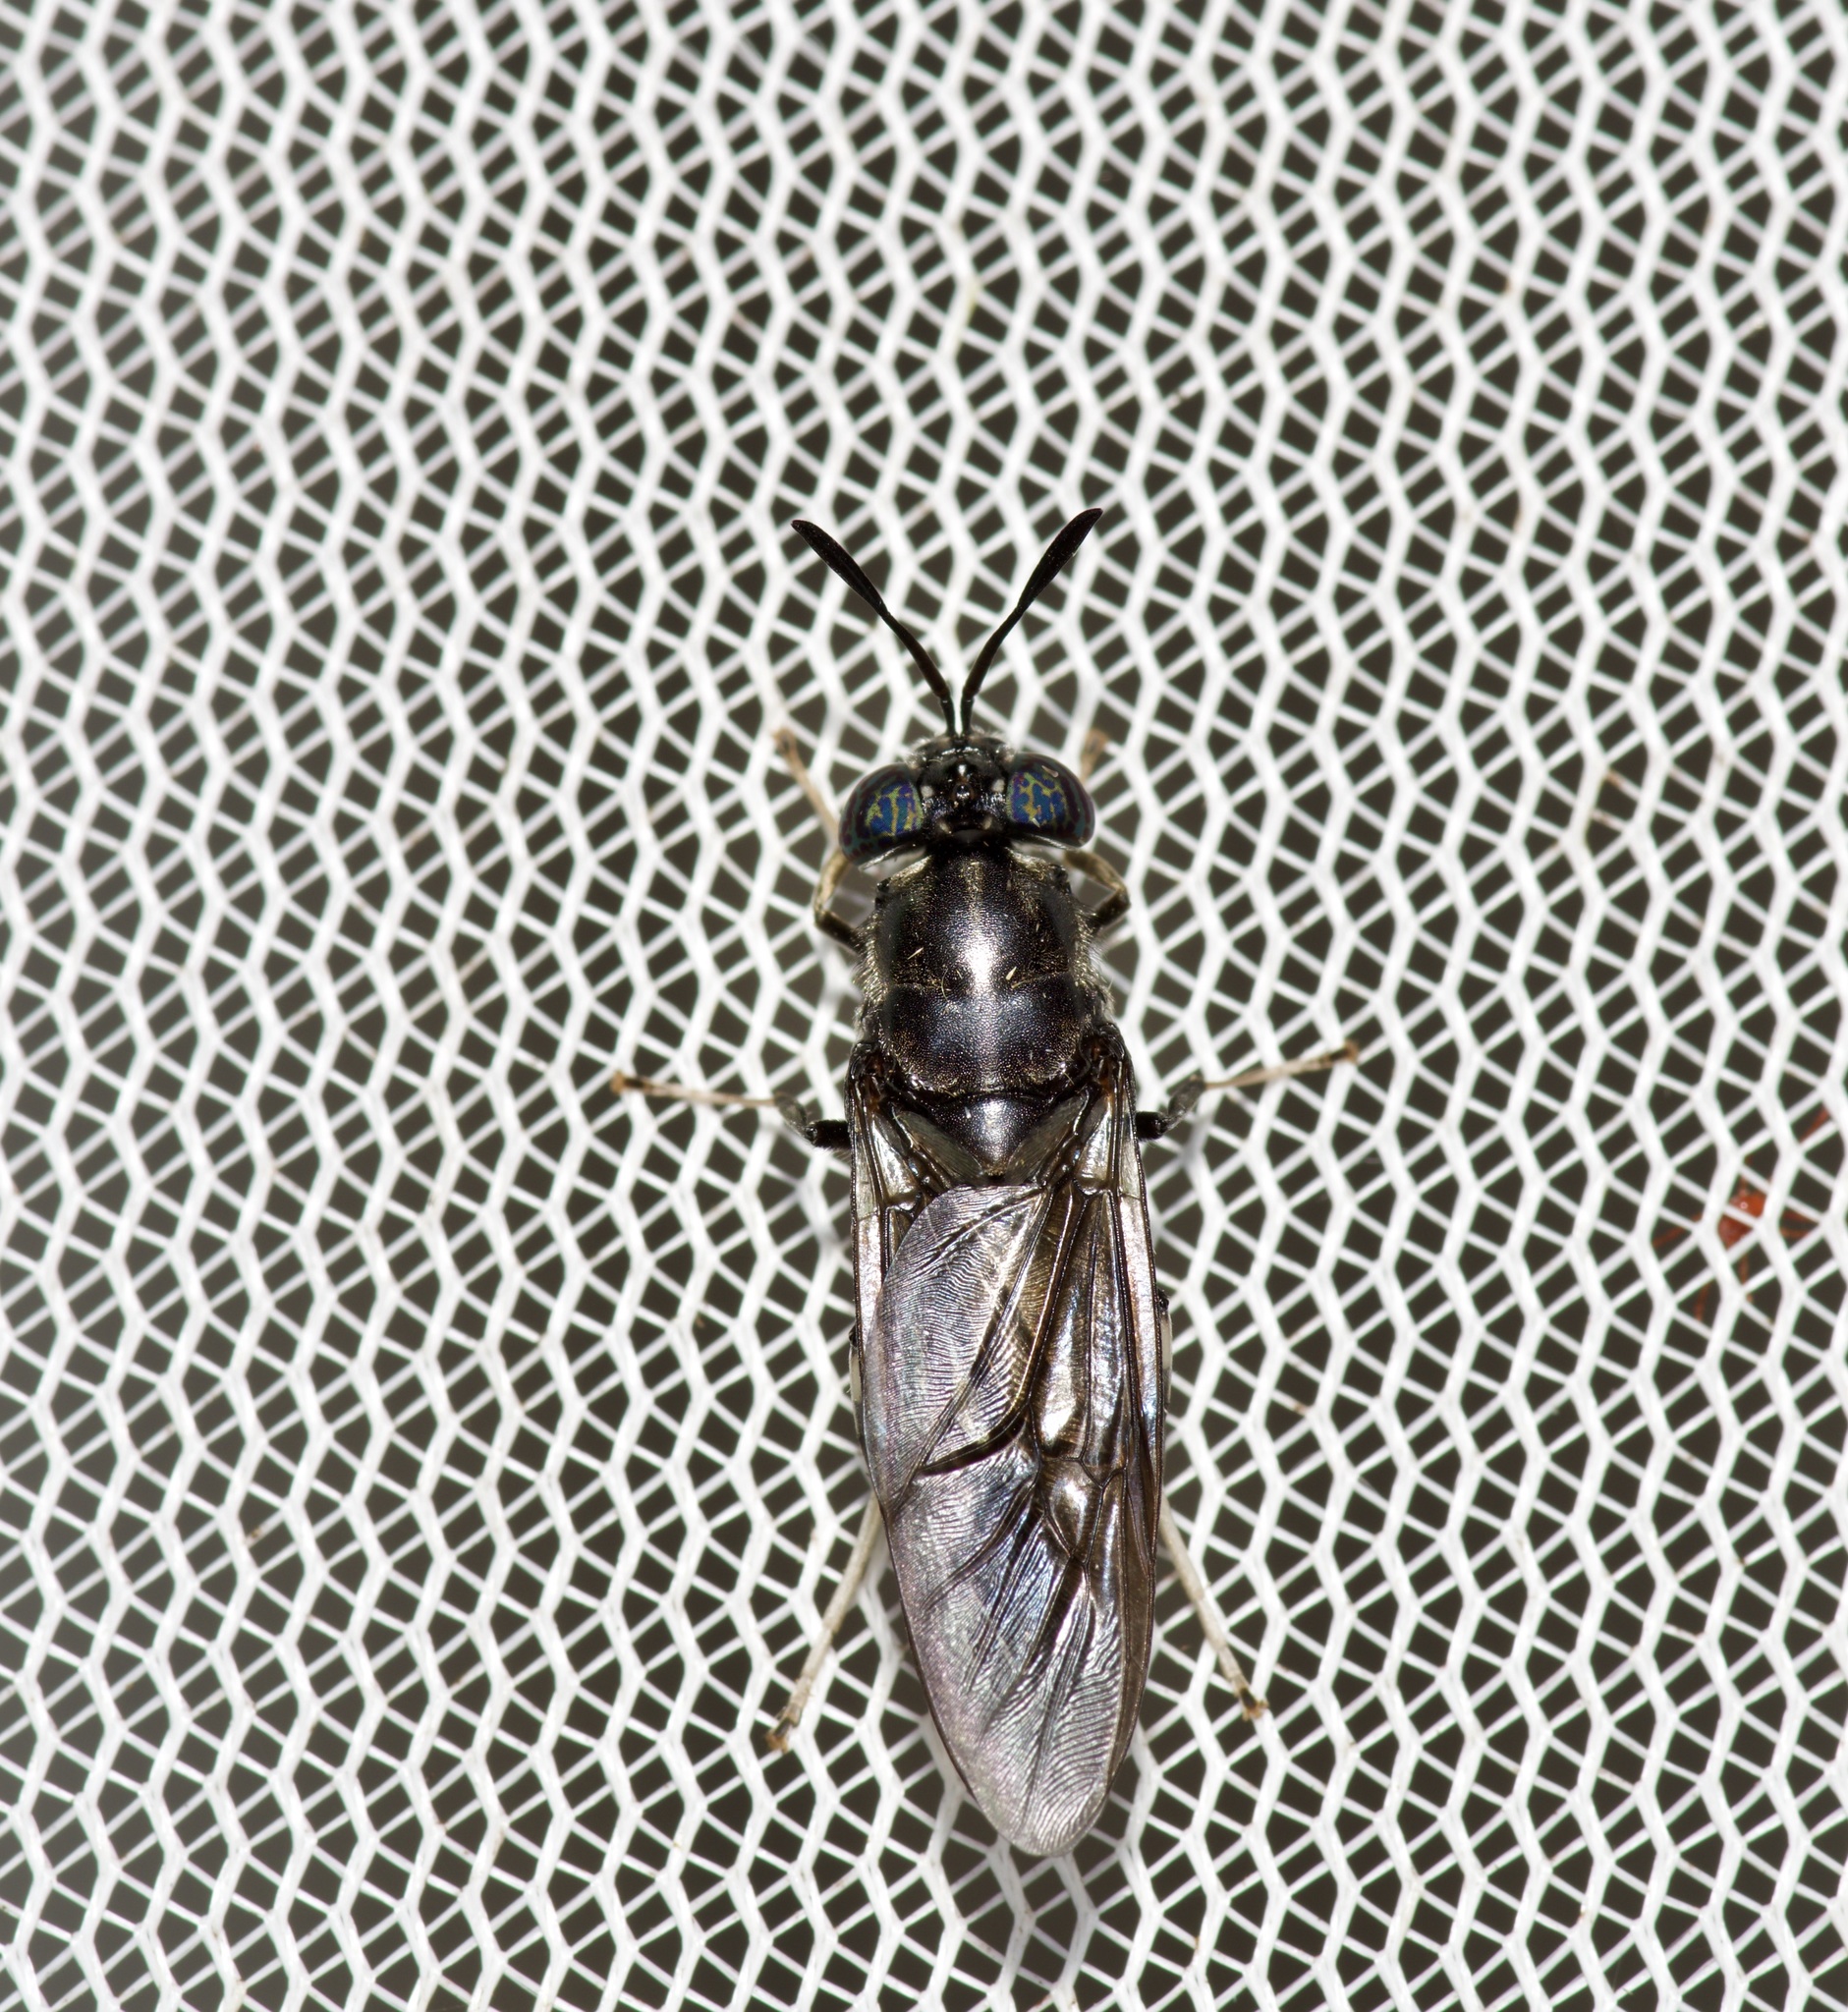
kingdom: Animalia
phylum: Arthropoda
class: Insecta
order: Diptera
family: Stratiomyidae
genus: Hermetia
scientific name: Hermetia illucens
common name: Black soldier fly
